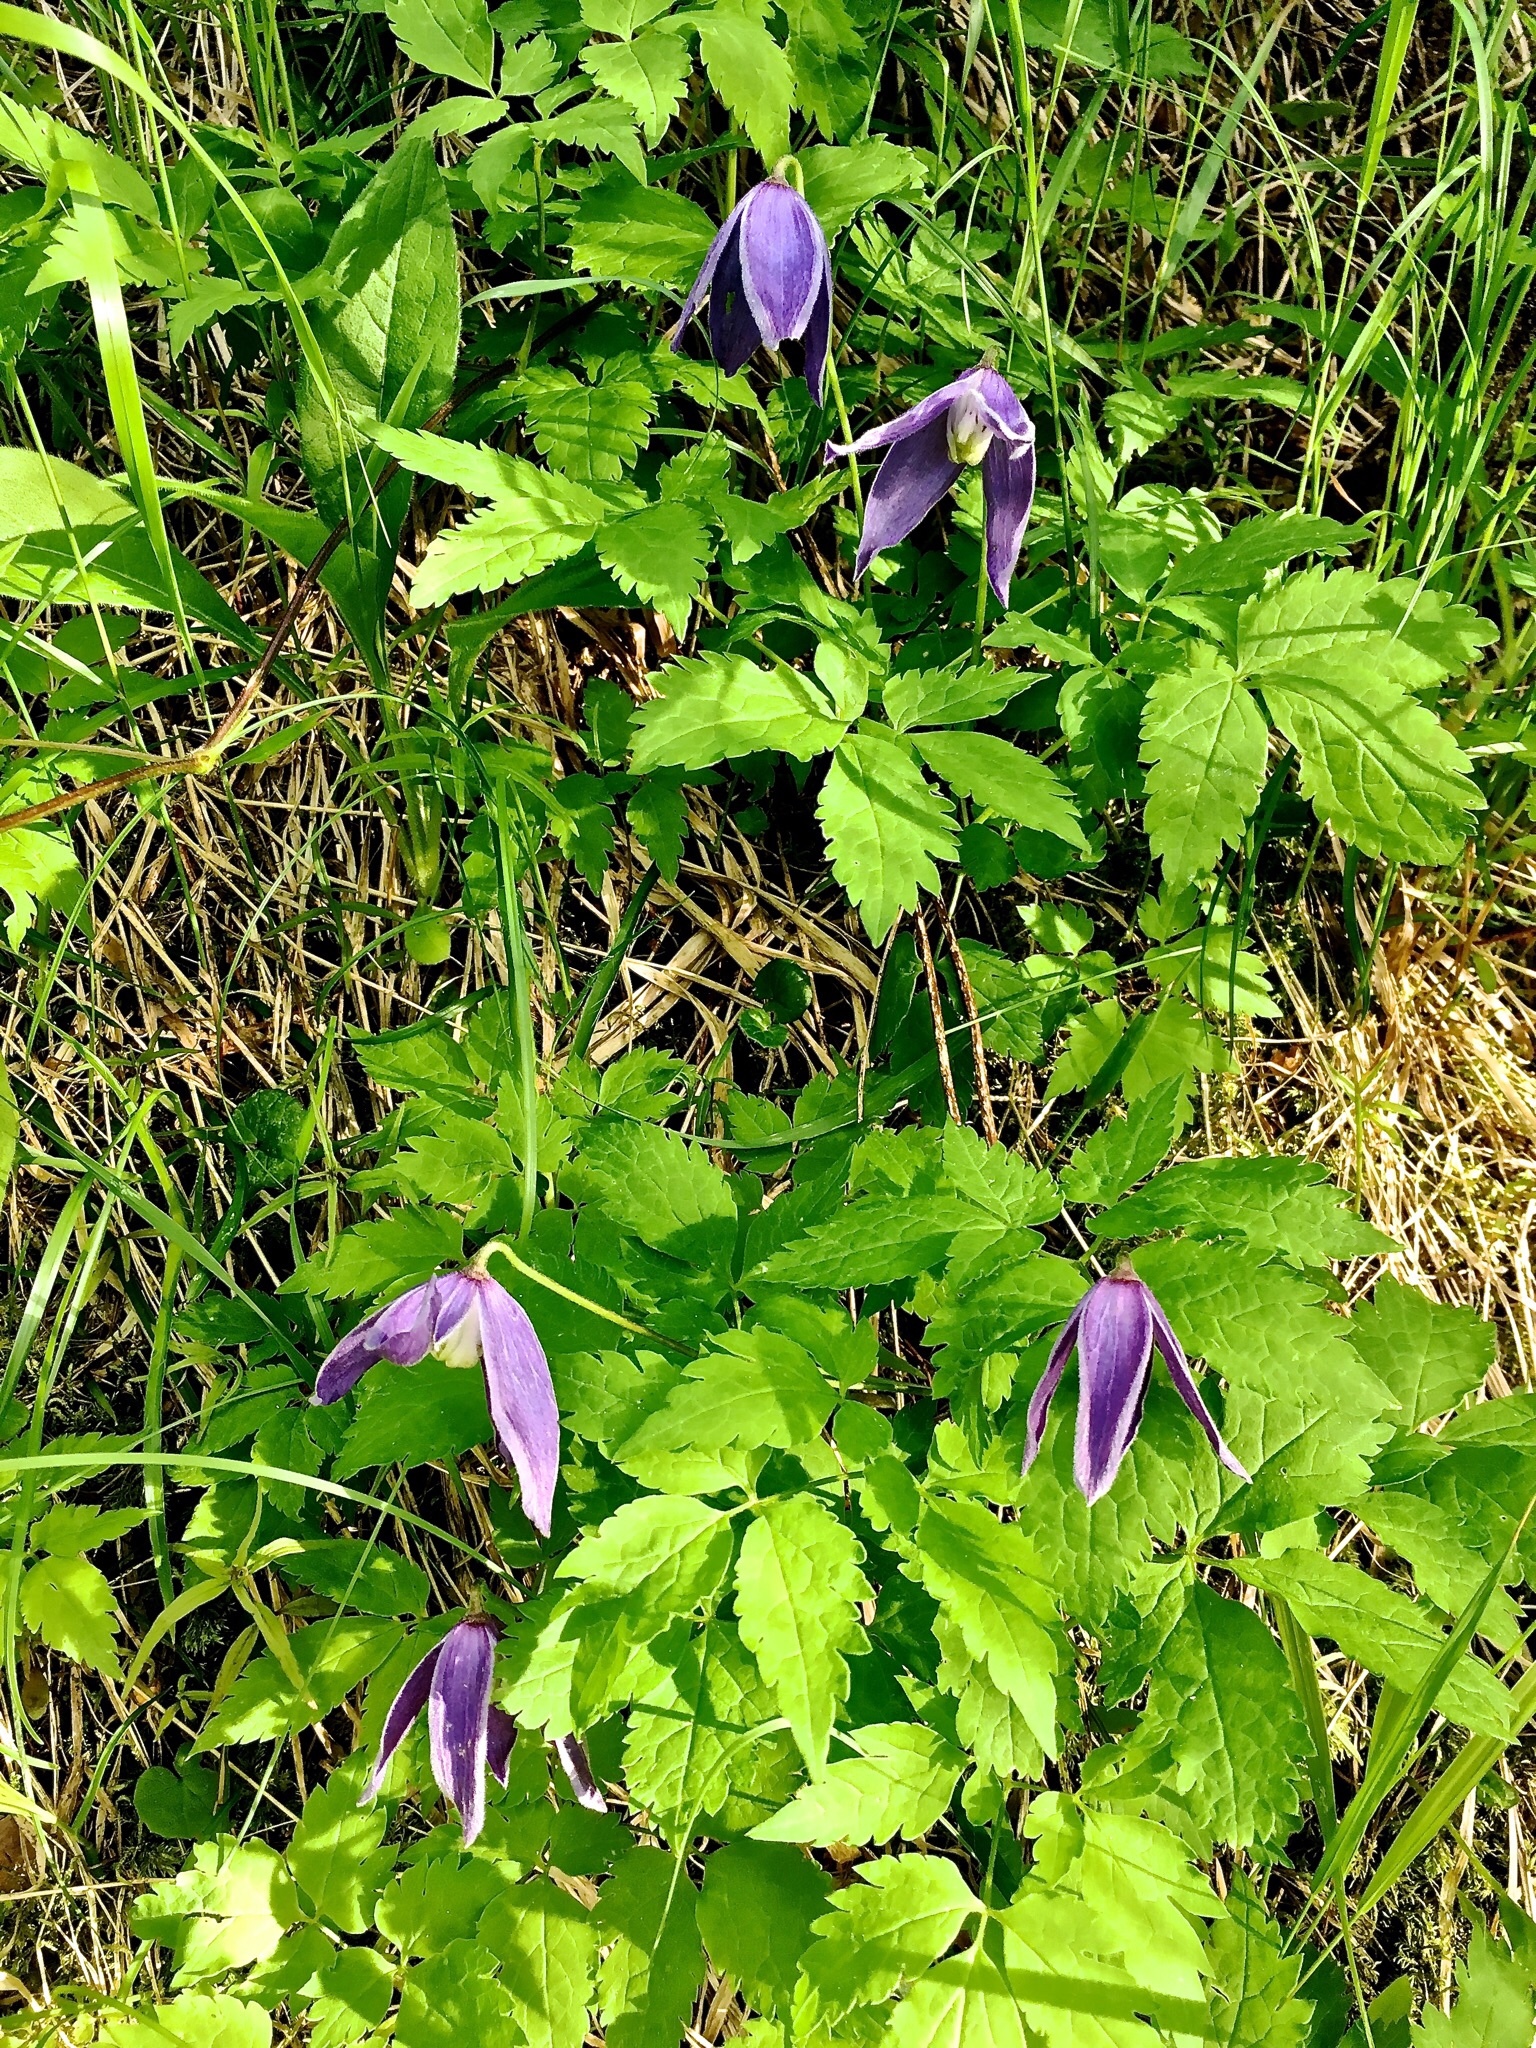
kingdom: Plantae
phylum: Tracheophyta
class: Magnoliopsida
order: Ranunculales
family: Ranunculaceae
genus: Clematis
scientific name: Clematis alpina
